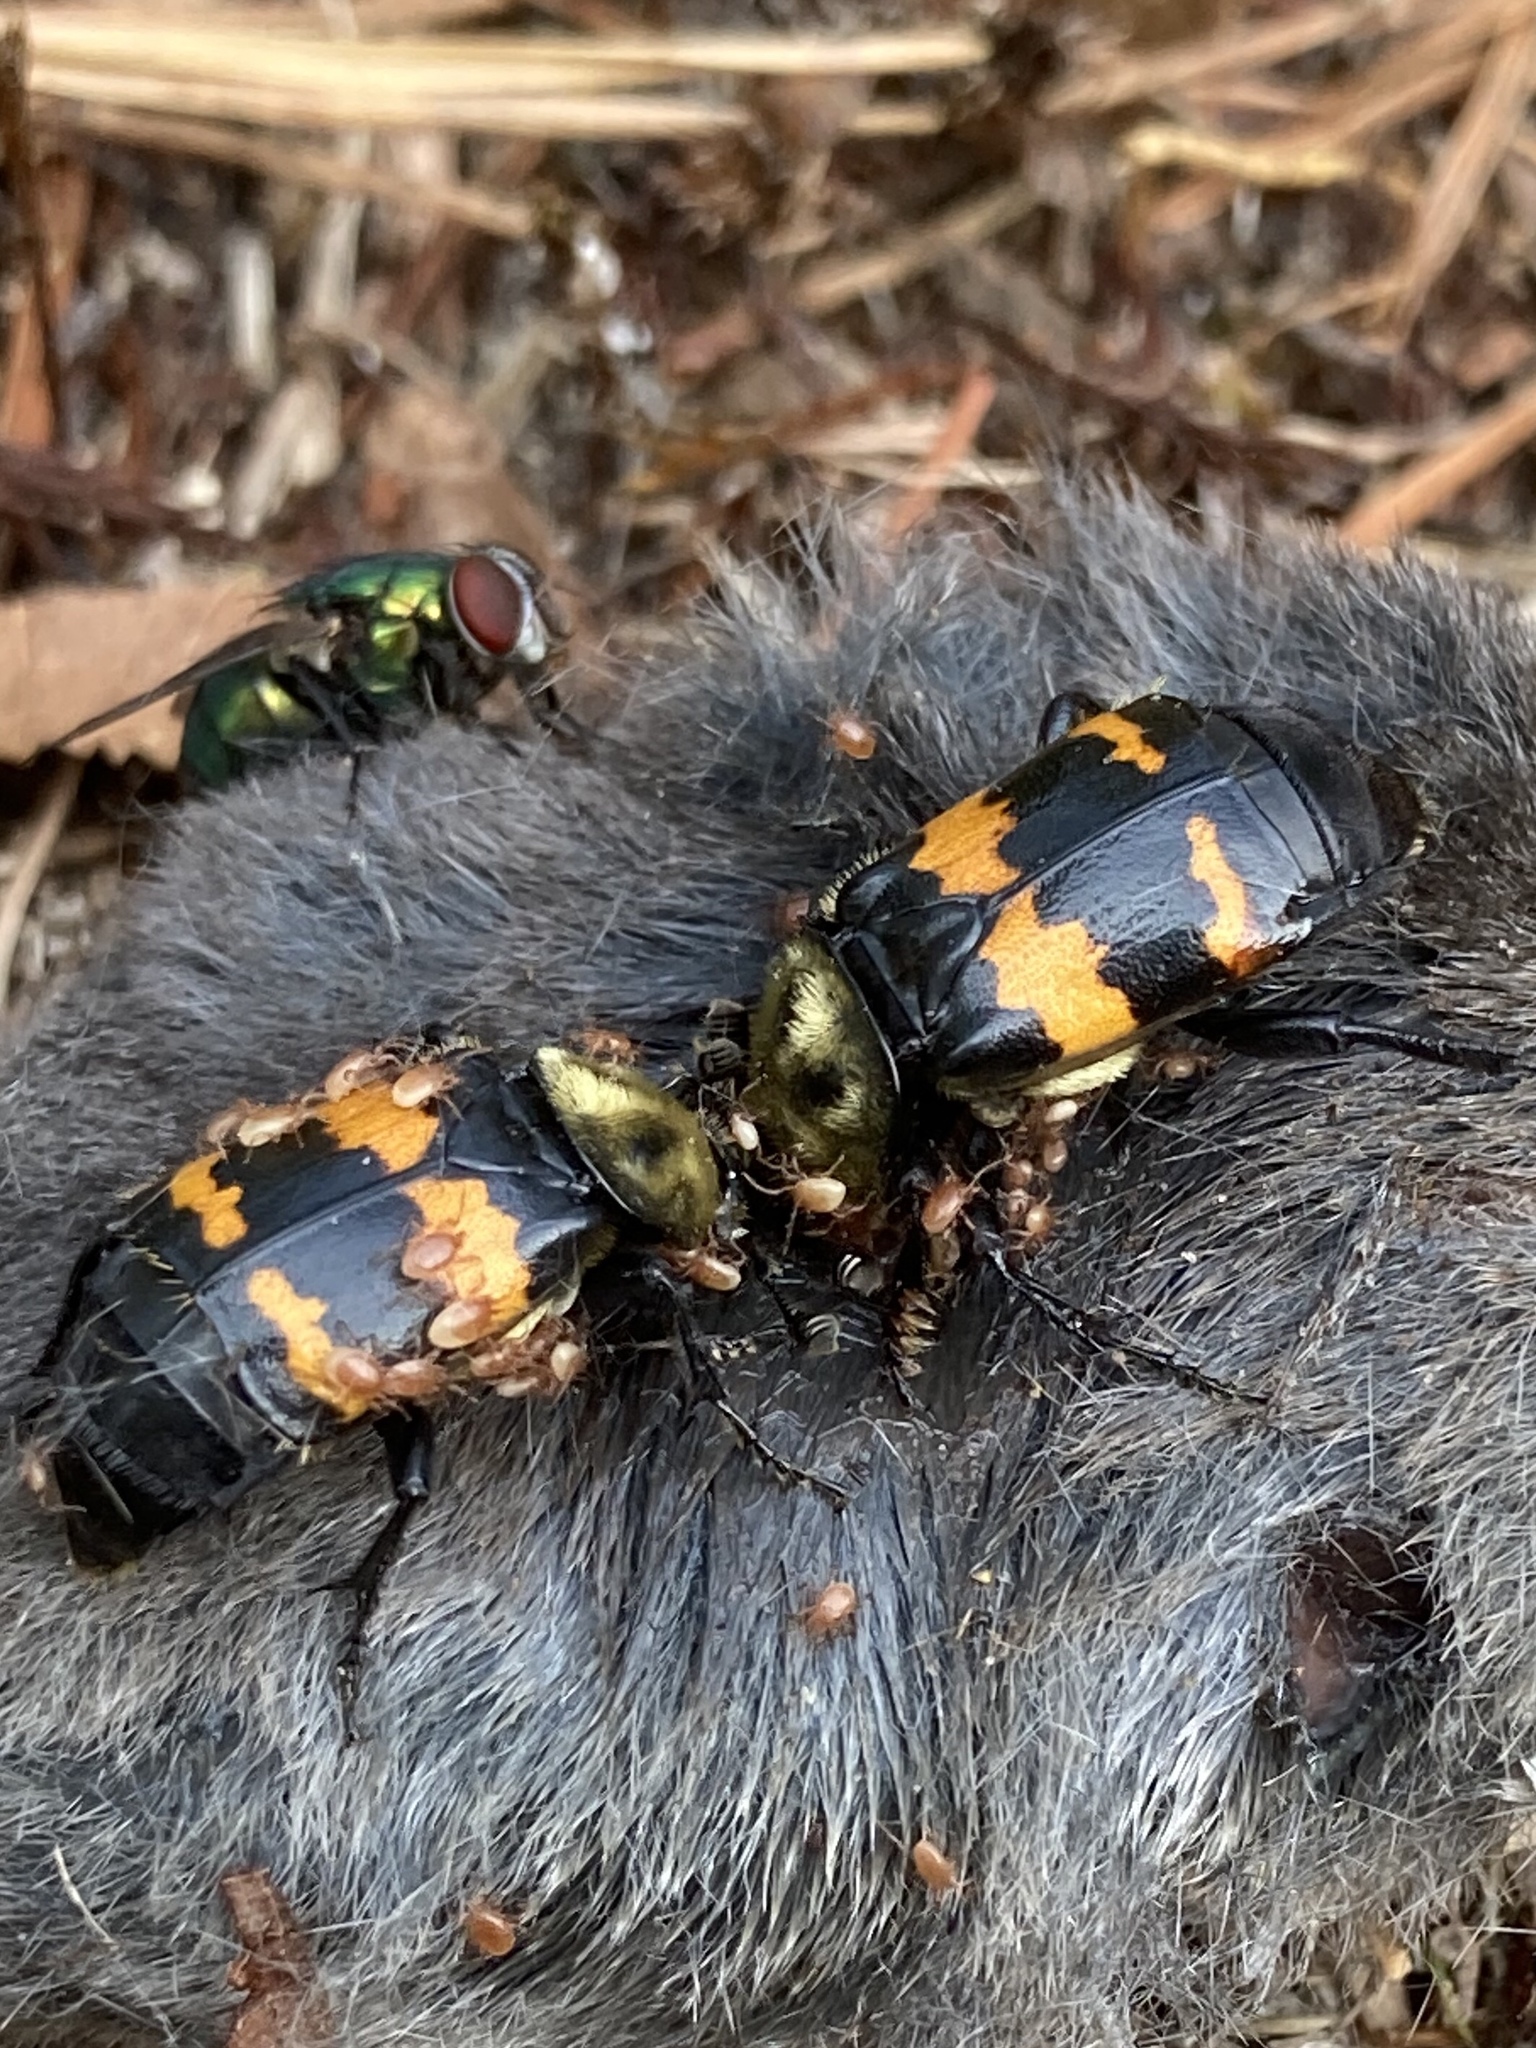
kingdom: Animalia
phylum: Arthropoda
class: Insecta
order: Coleoptera
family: Staphylinidae
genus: Nicrophorus
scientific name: Nicrophorus tomentosus
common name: Tomentose burying beetle
